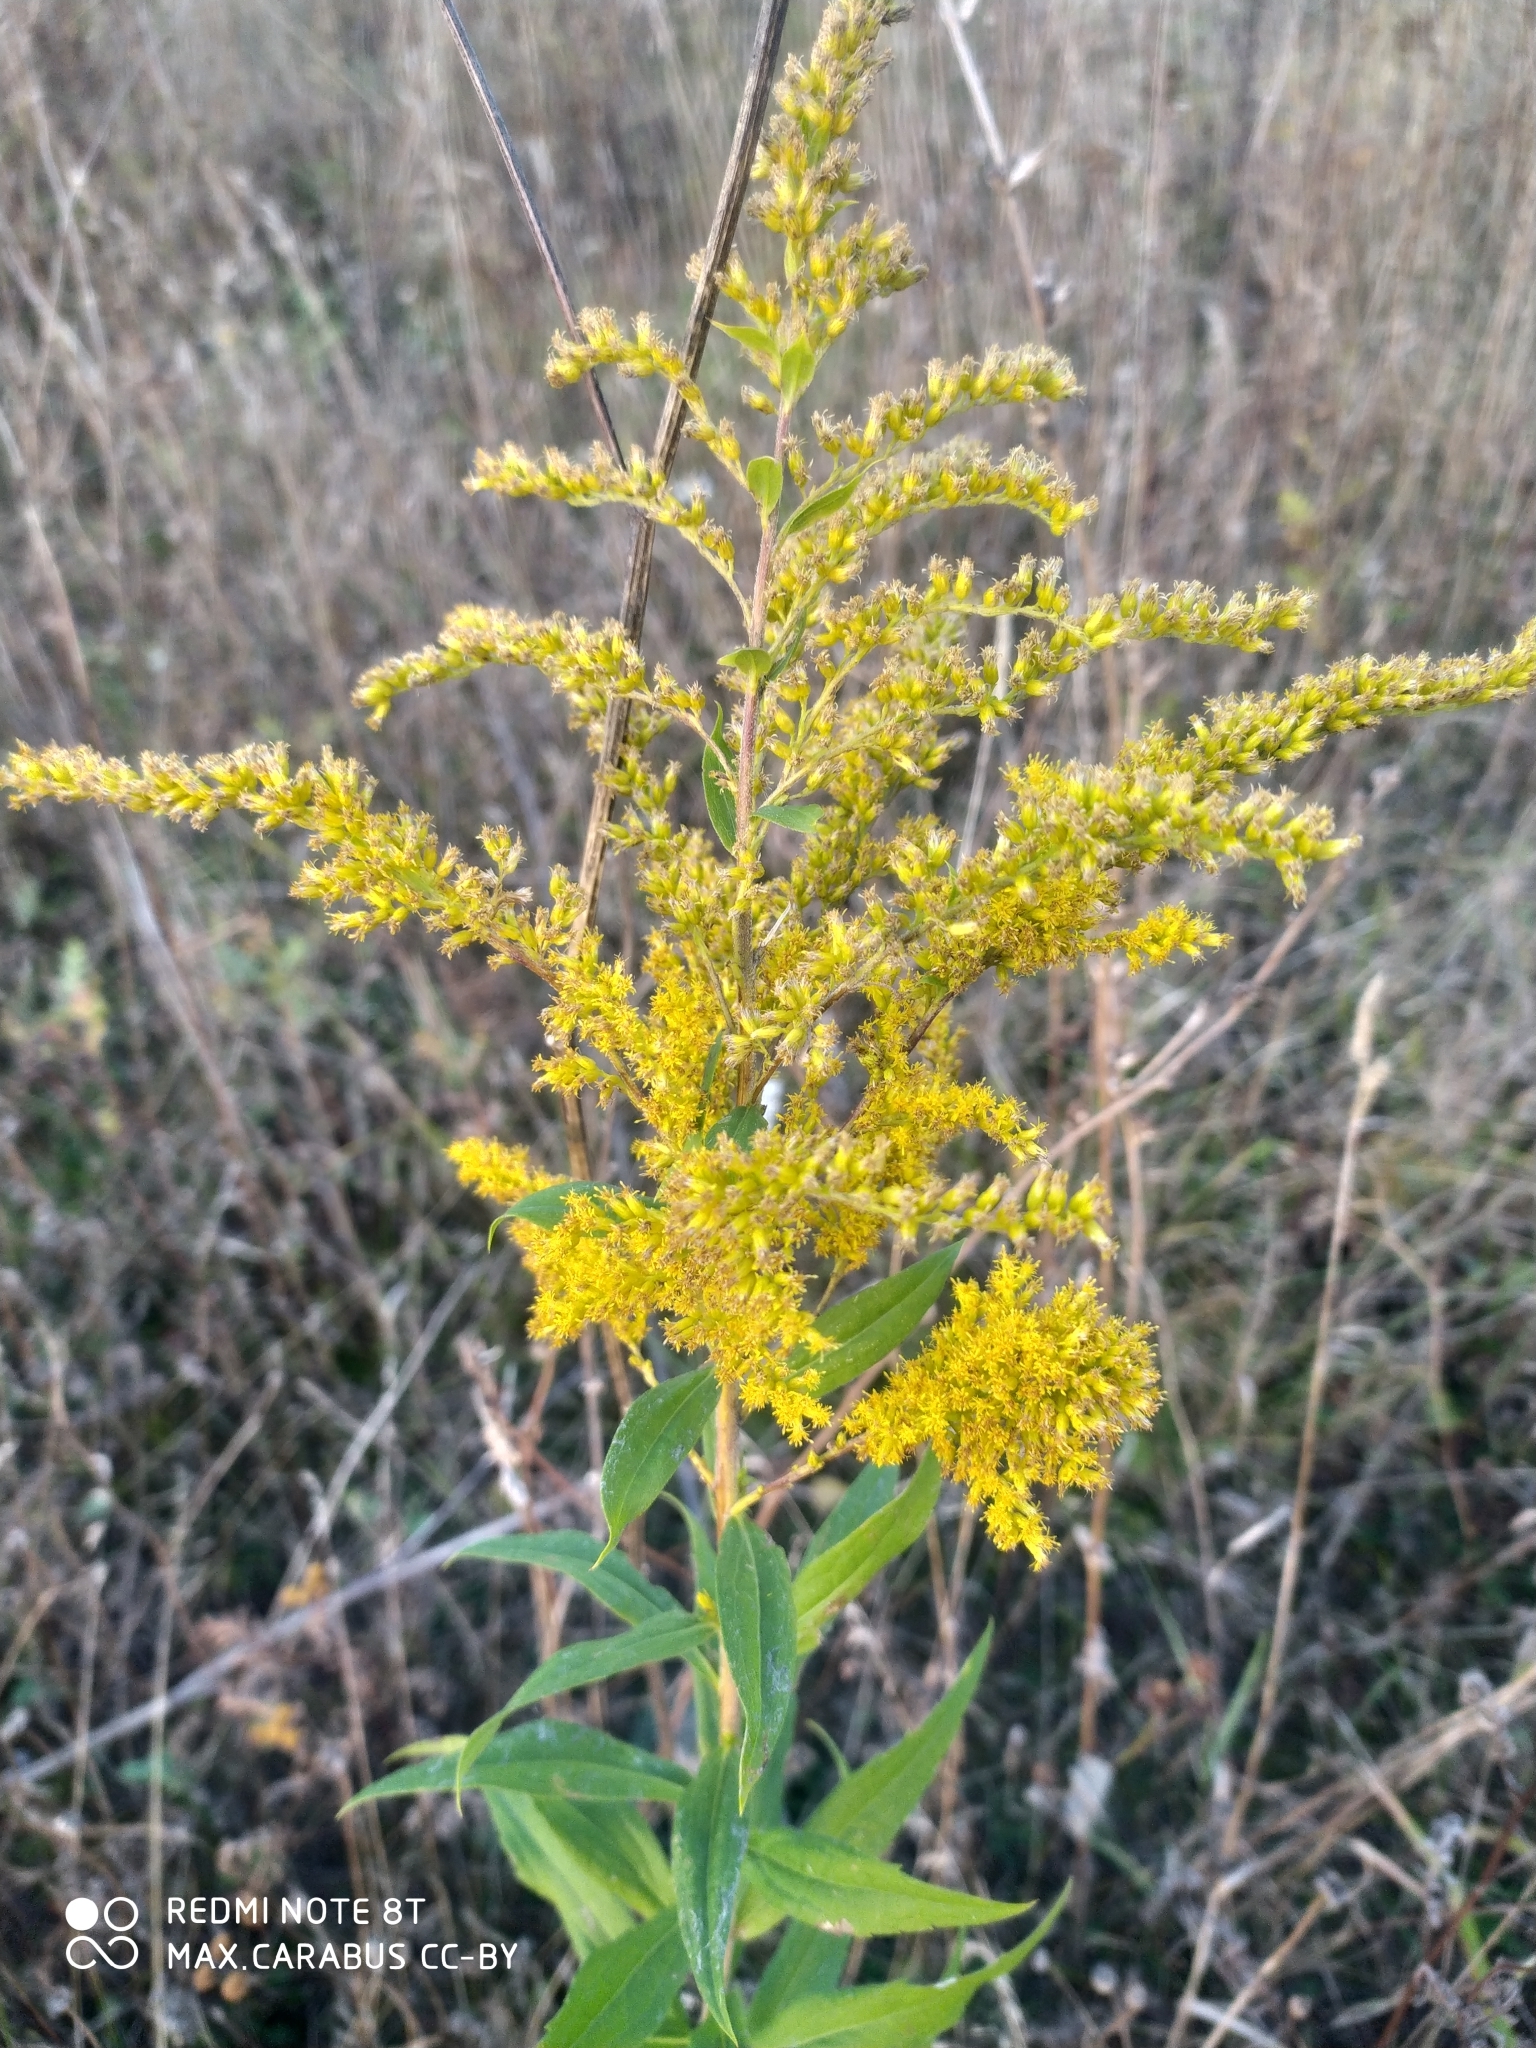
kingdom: Plantae
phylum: Tracheophyta
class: Magnoliopsida
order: Asterales
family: Asteraceae
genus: Solidago
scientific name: Solidago canadensis
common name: Canada goldenrod
